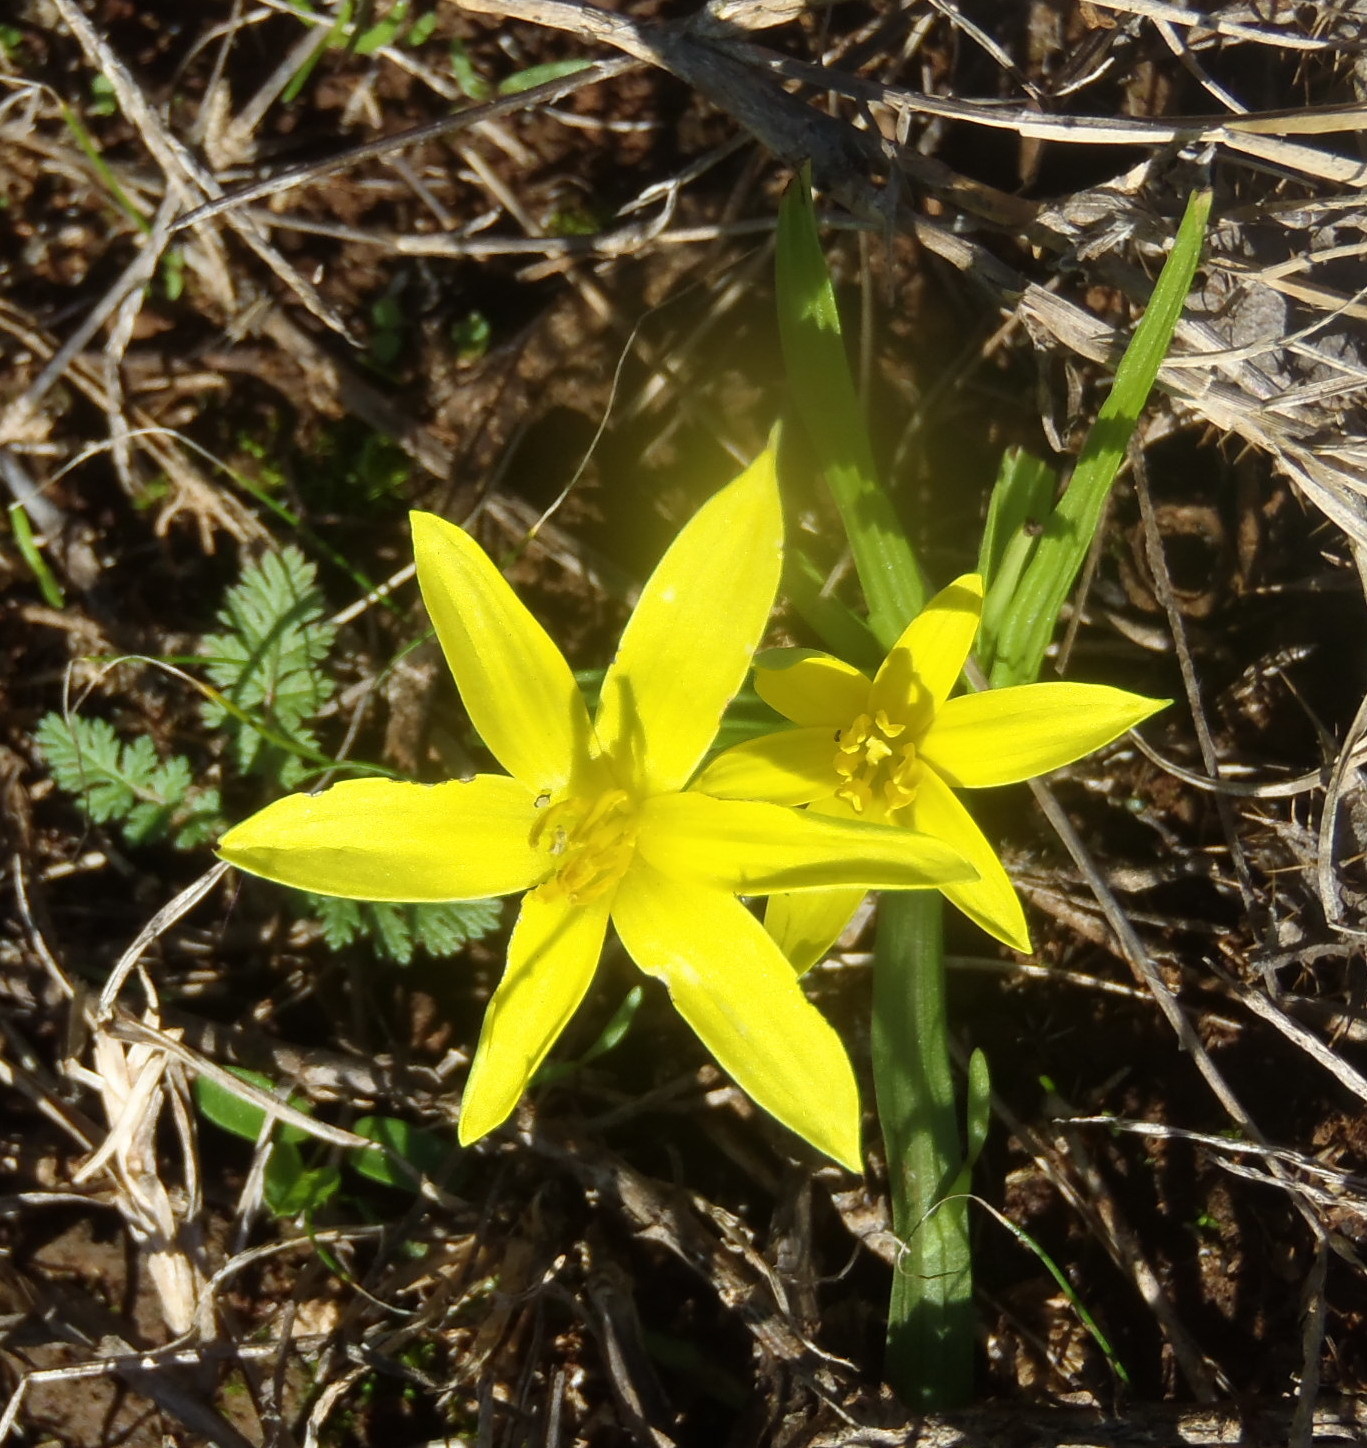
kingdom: Plantae
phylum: Tracheophyta
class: Liliopsida
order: Asparagales
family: Hypoxidaceae
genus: Empodium
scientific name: Empodium gloriosum
